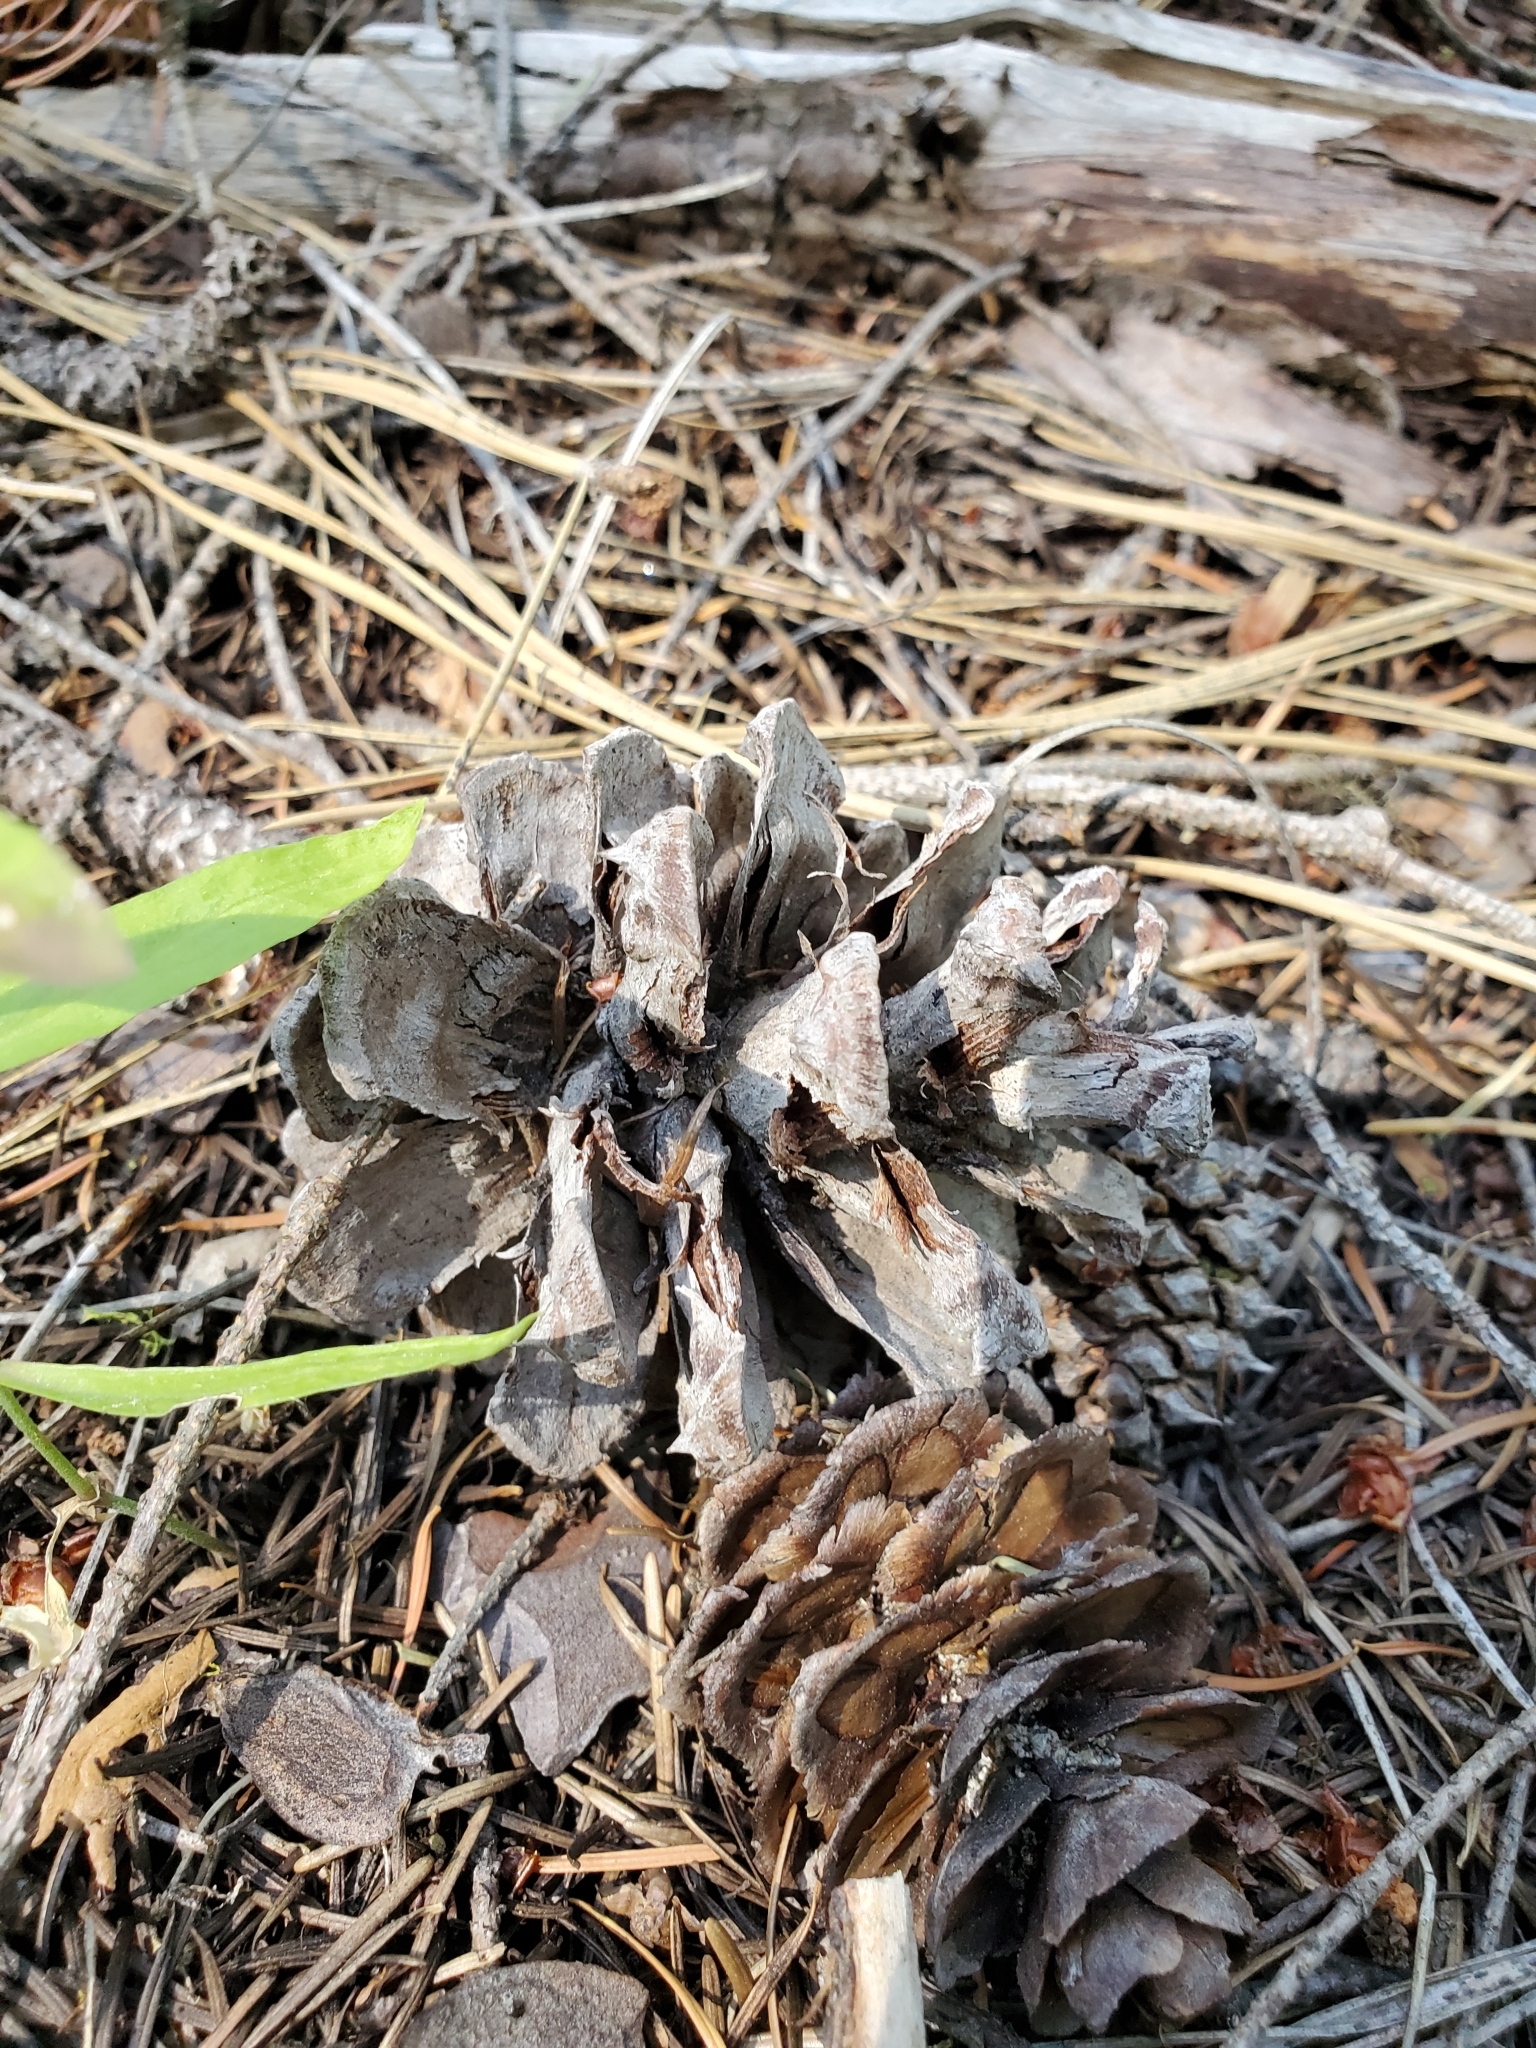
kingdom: Plantae
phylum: Tracheophyta
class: Pinopsida
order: Pinales
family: Pinaceae
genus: Pinus
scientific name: Pinus ponderosa
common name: Western yellow-pine
